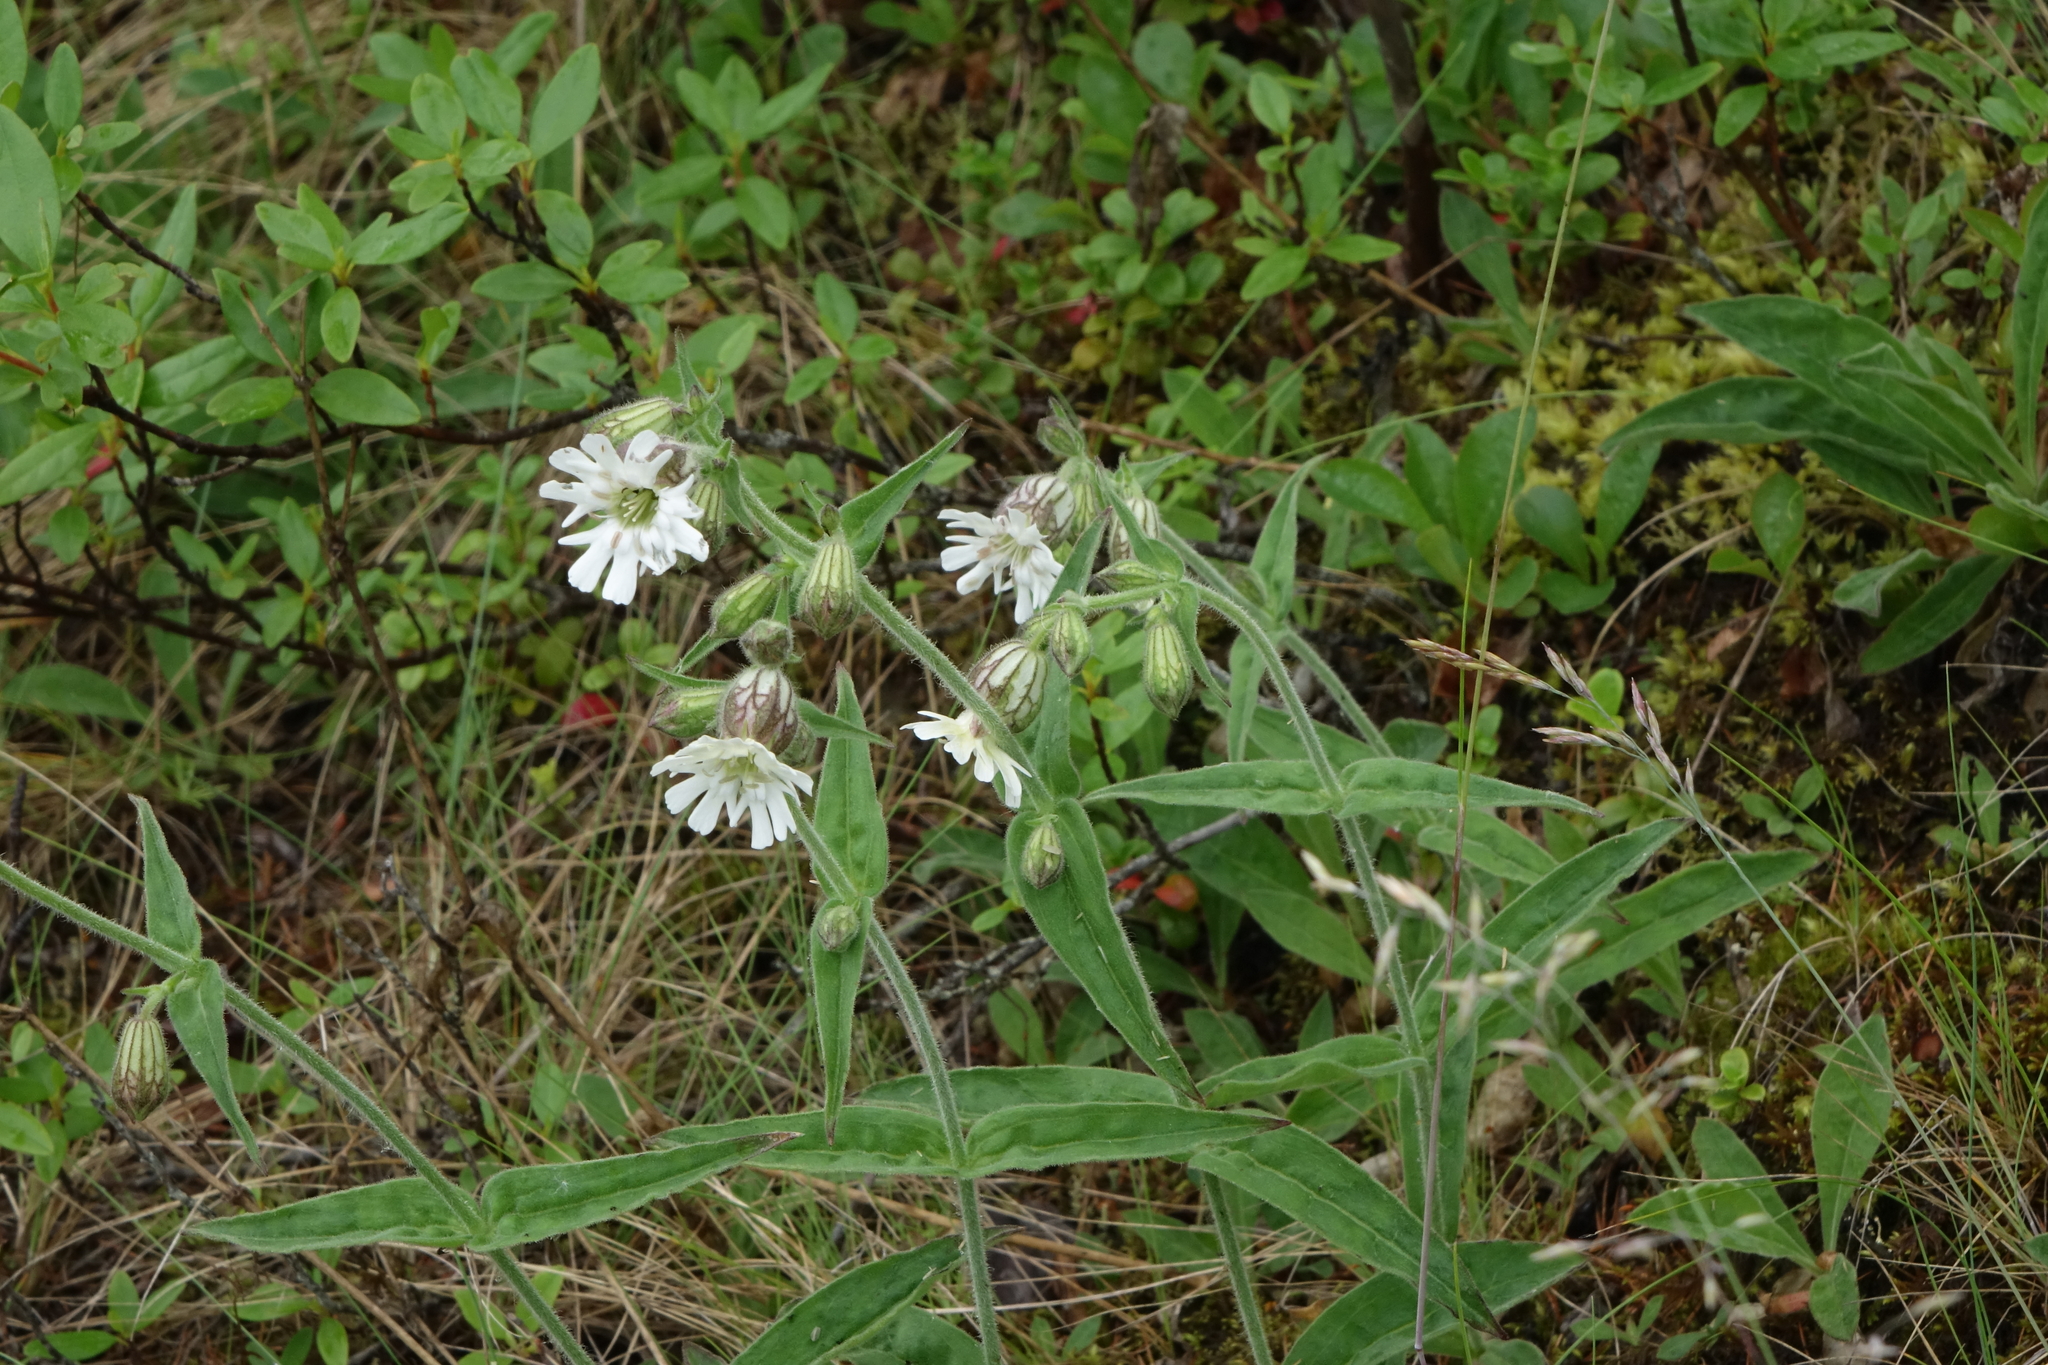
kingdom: Plantae
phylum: Tracheophyta
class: Magnoliopsida
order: Caryophyllales
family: Caryophyllaceae
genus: Silene
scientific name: Silene latifolia
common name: White campion
